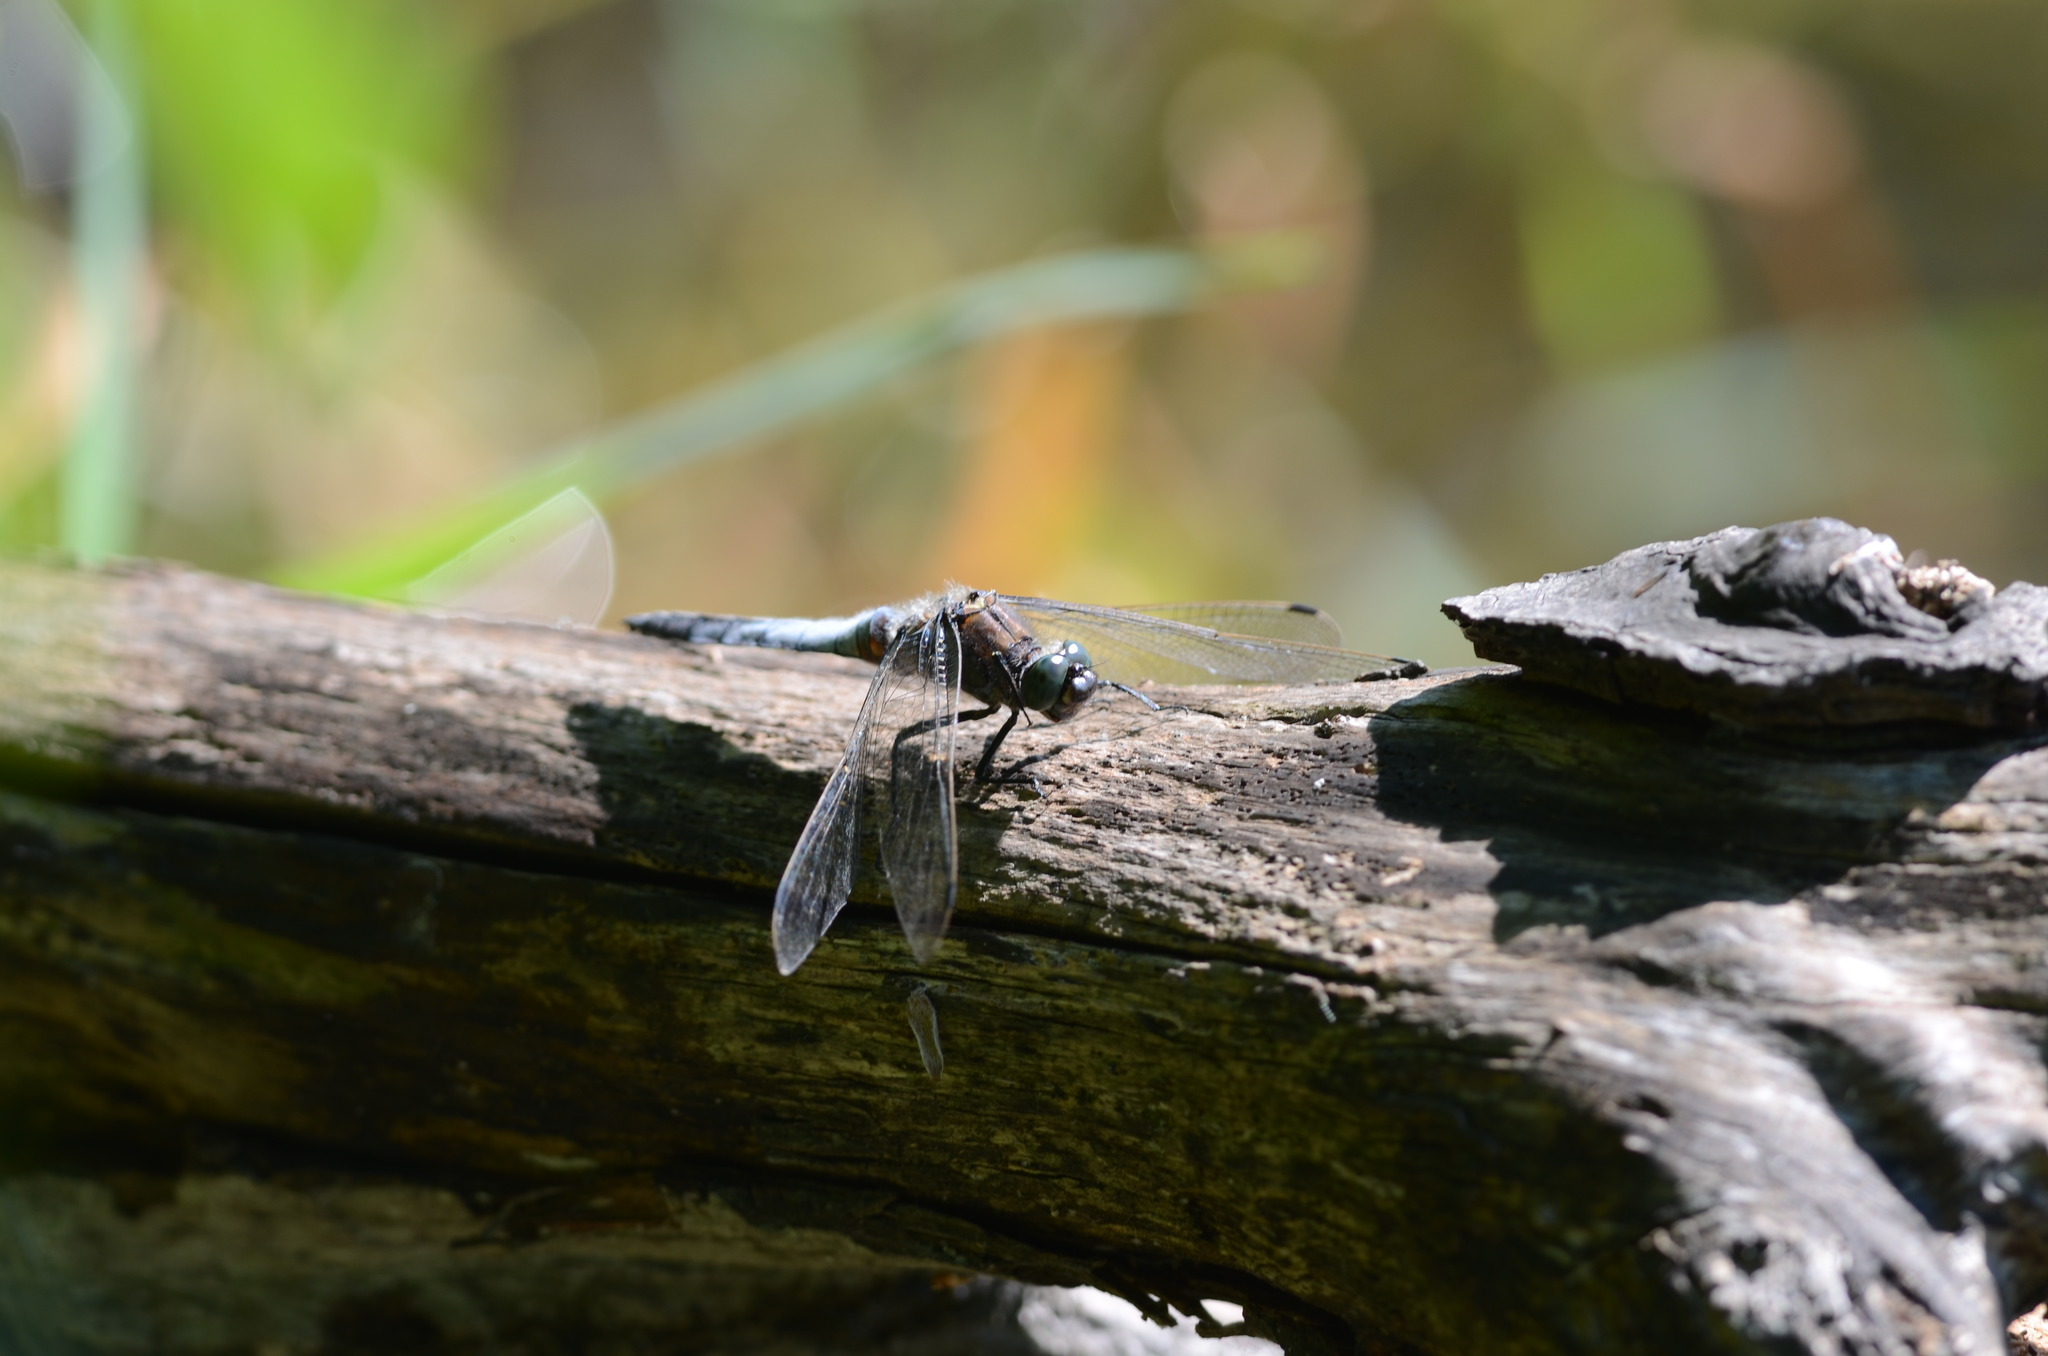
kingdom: Animalia
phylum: Arthropoda
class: Insecta
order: Odonata
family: Libellulidae
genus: Orthetrum
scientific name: Orthetrum cancellatum
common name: Black-tailed skimmer
